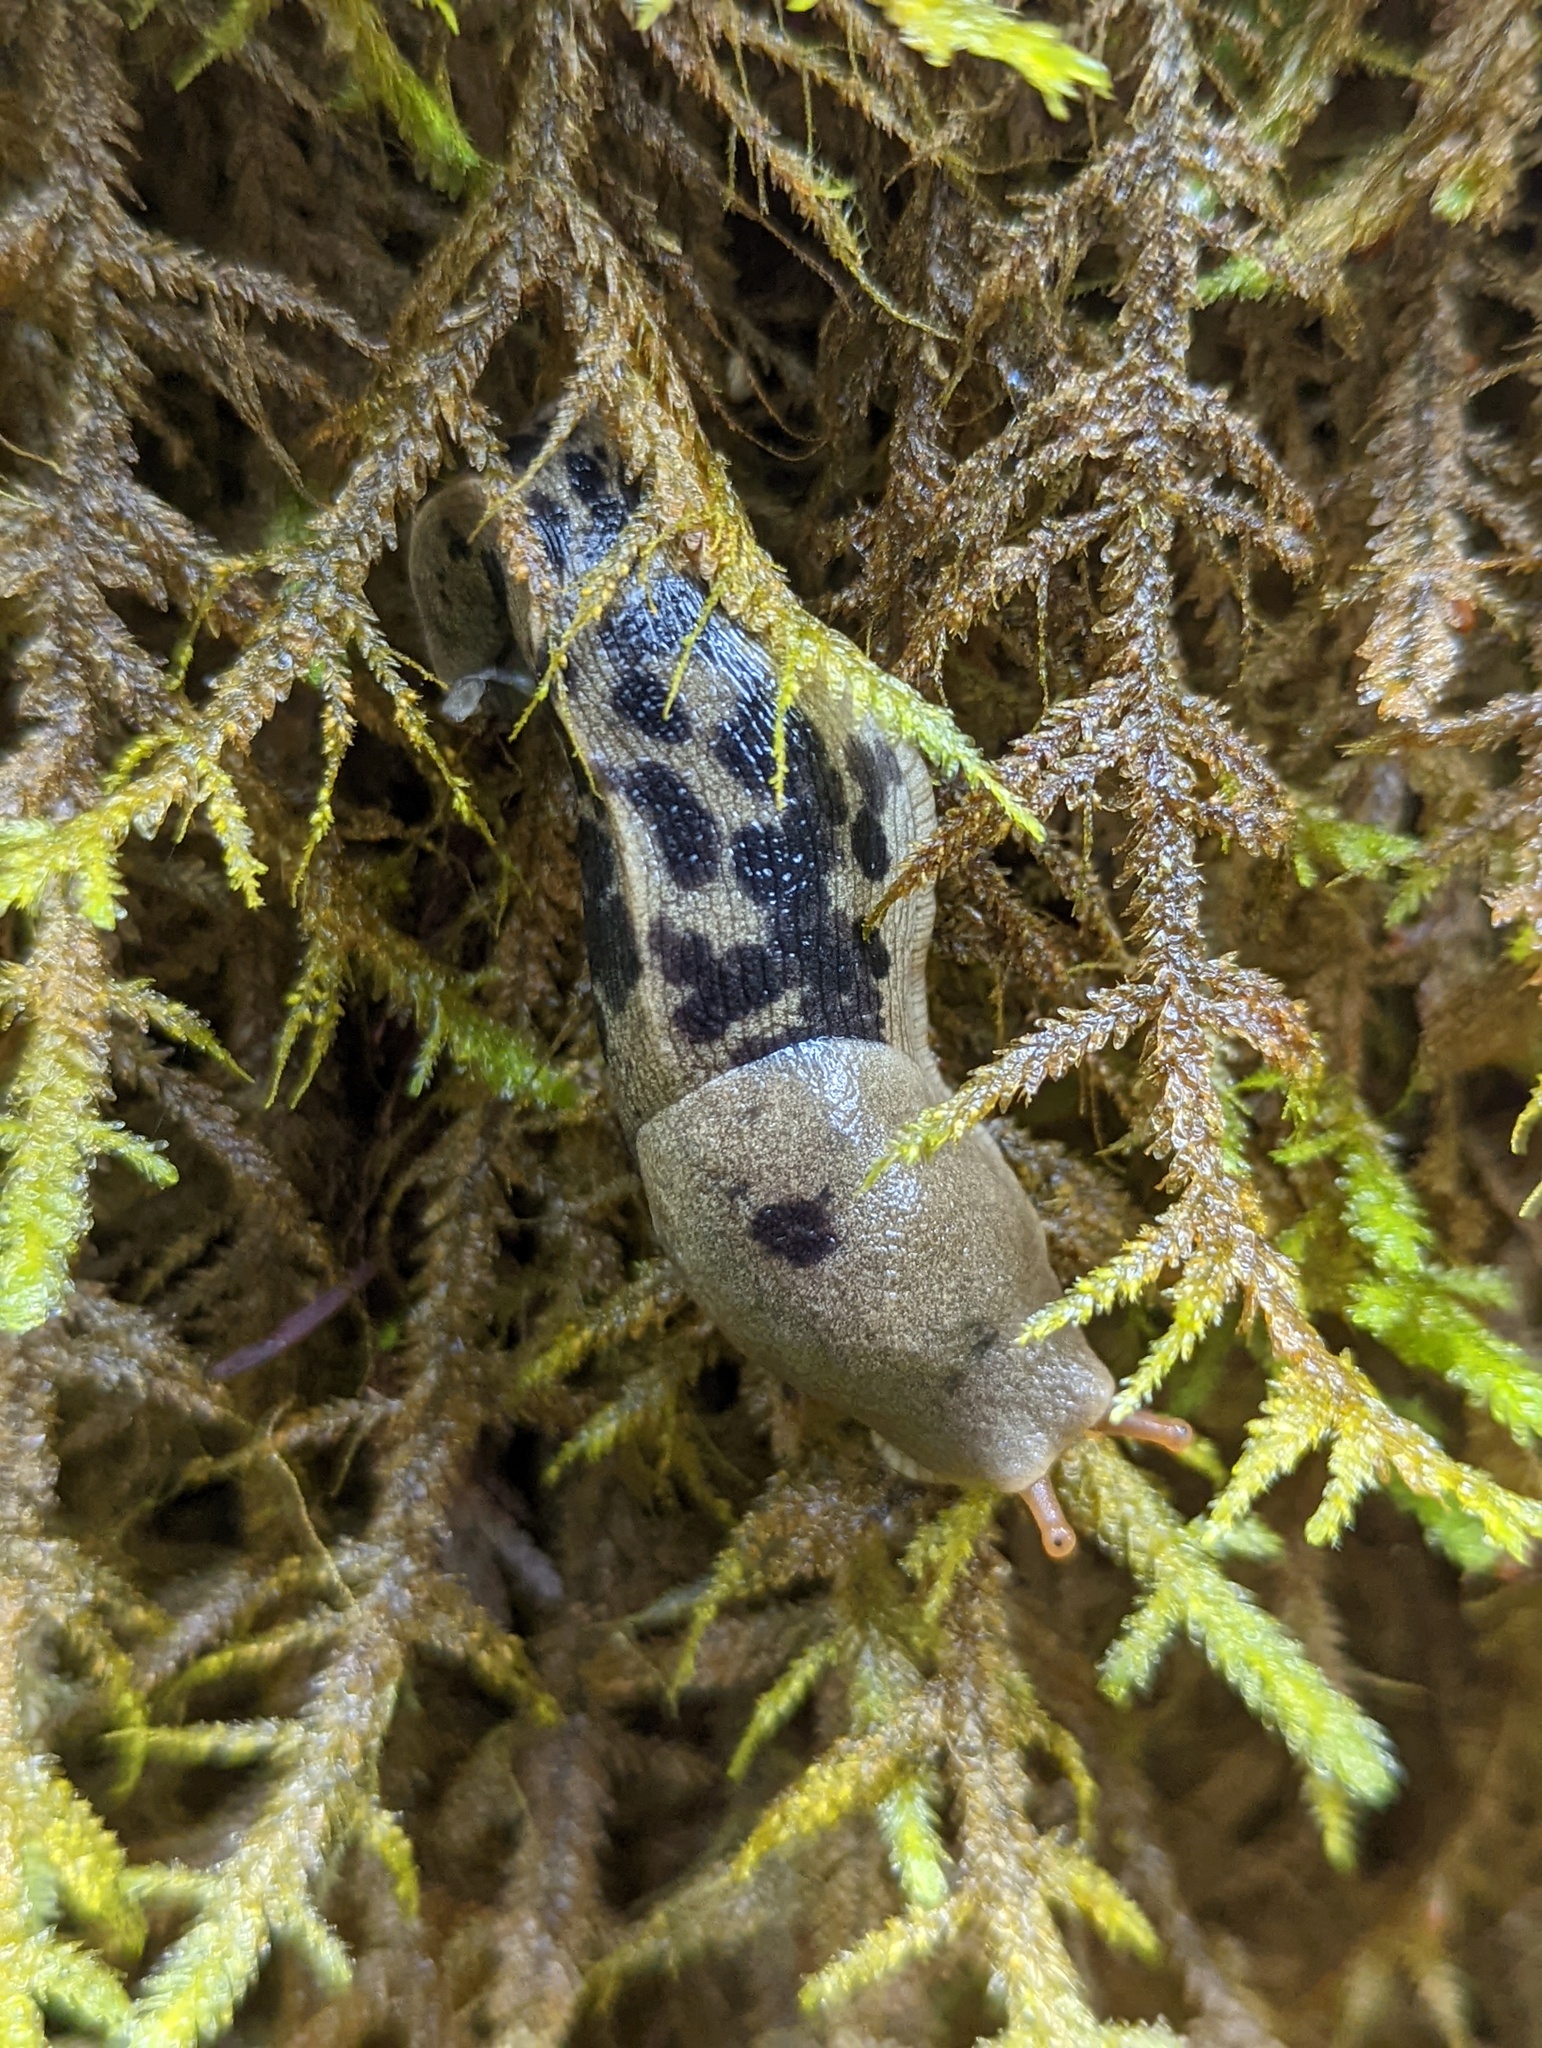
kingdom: Animalia
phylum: Mollusca
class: Gastropoda
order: Stylommatophora
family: Ariolimacidae
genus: Ariolimax
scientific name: Ariolimax columbianus
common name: Pacific banana slug
